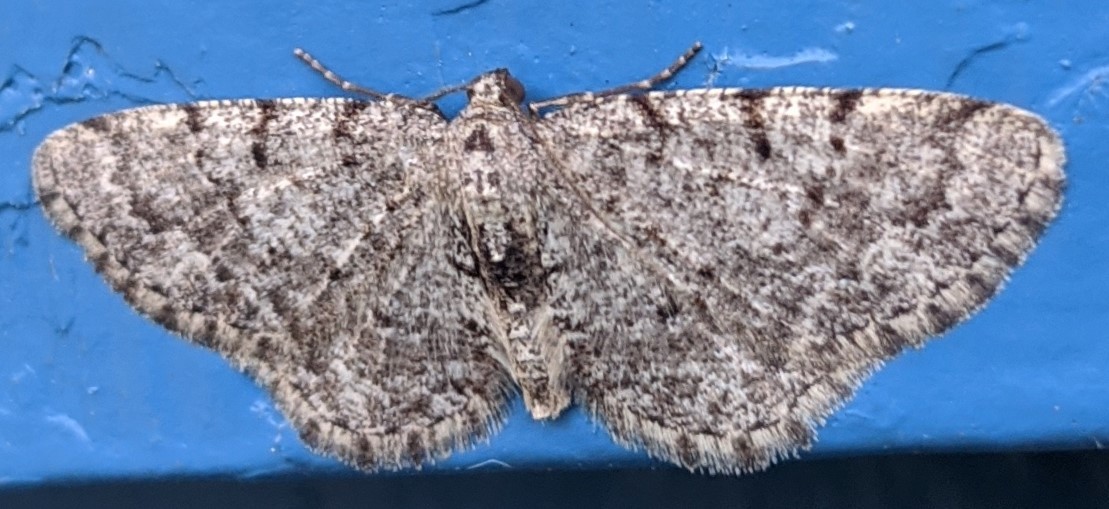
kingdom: Animalia
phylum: Arthropoda
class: Insecta
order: Lepidoptera
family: Geometridae
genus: Aethalura
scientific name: Aethalura intertexta
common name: Four-barred gray
